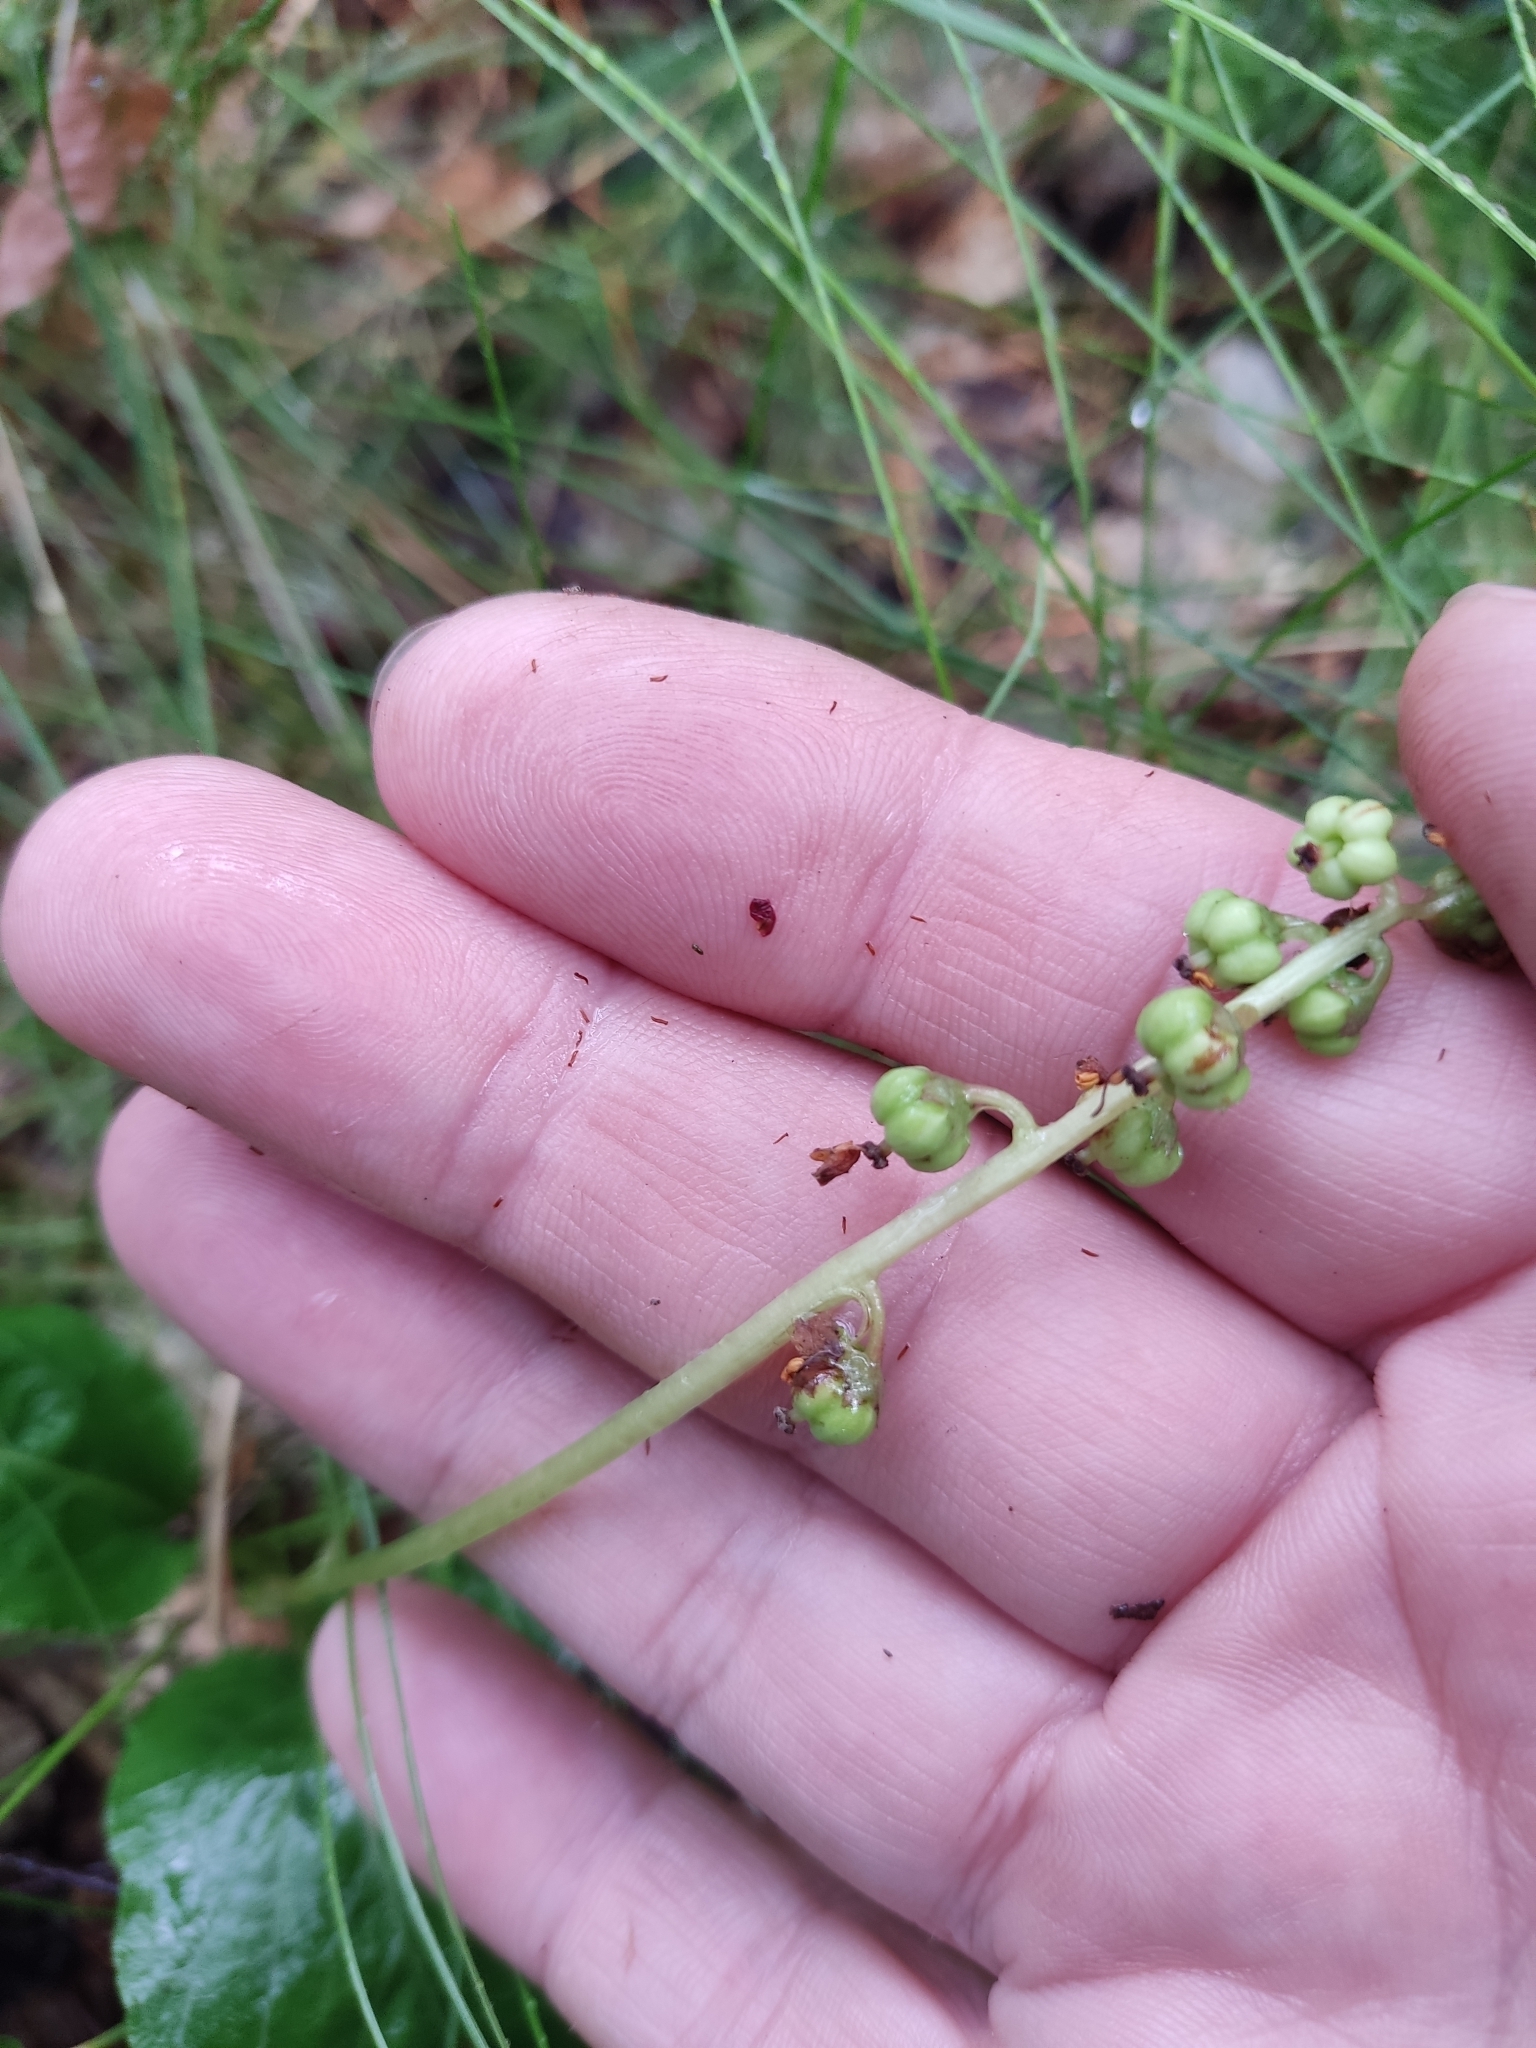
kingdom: Plantae
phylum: Tracheophyta
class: Magnoliopsida
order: Ericales
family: Ericaceae
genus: Pyrola
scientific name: Pyrola minor
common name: Common wintergreen
